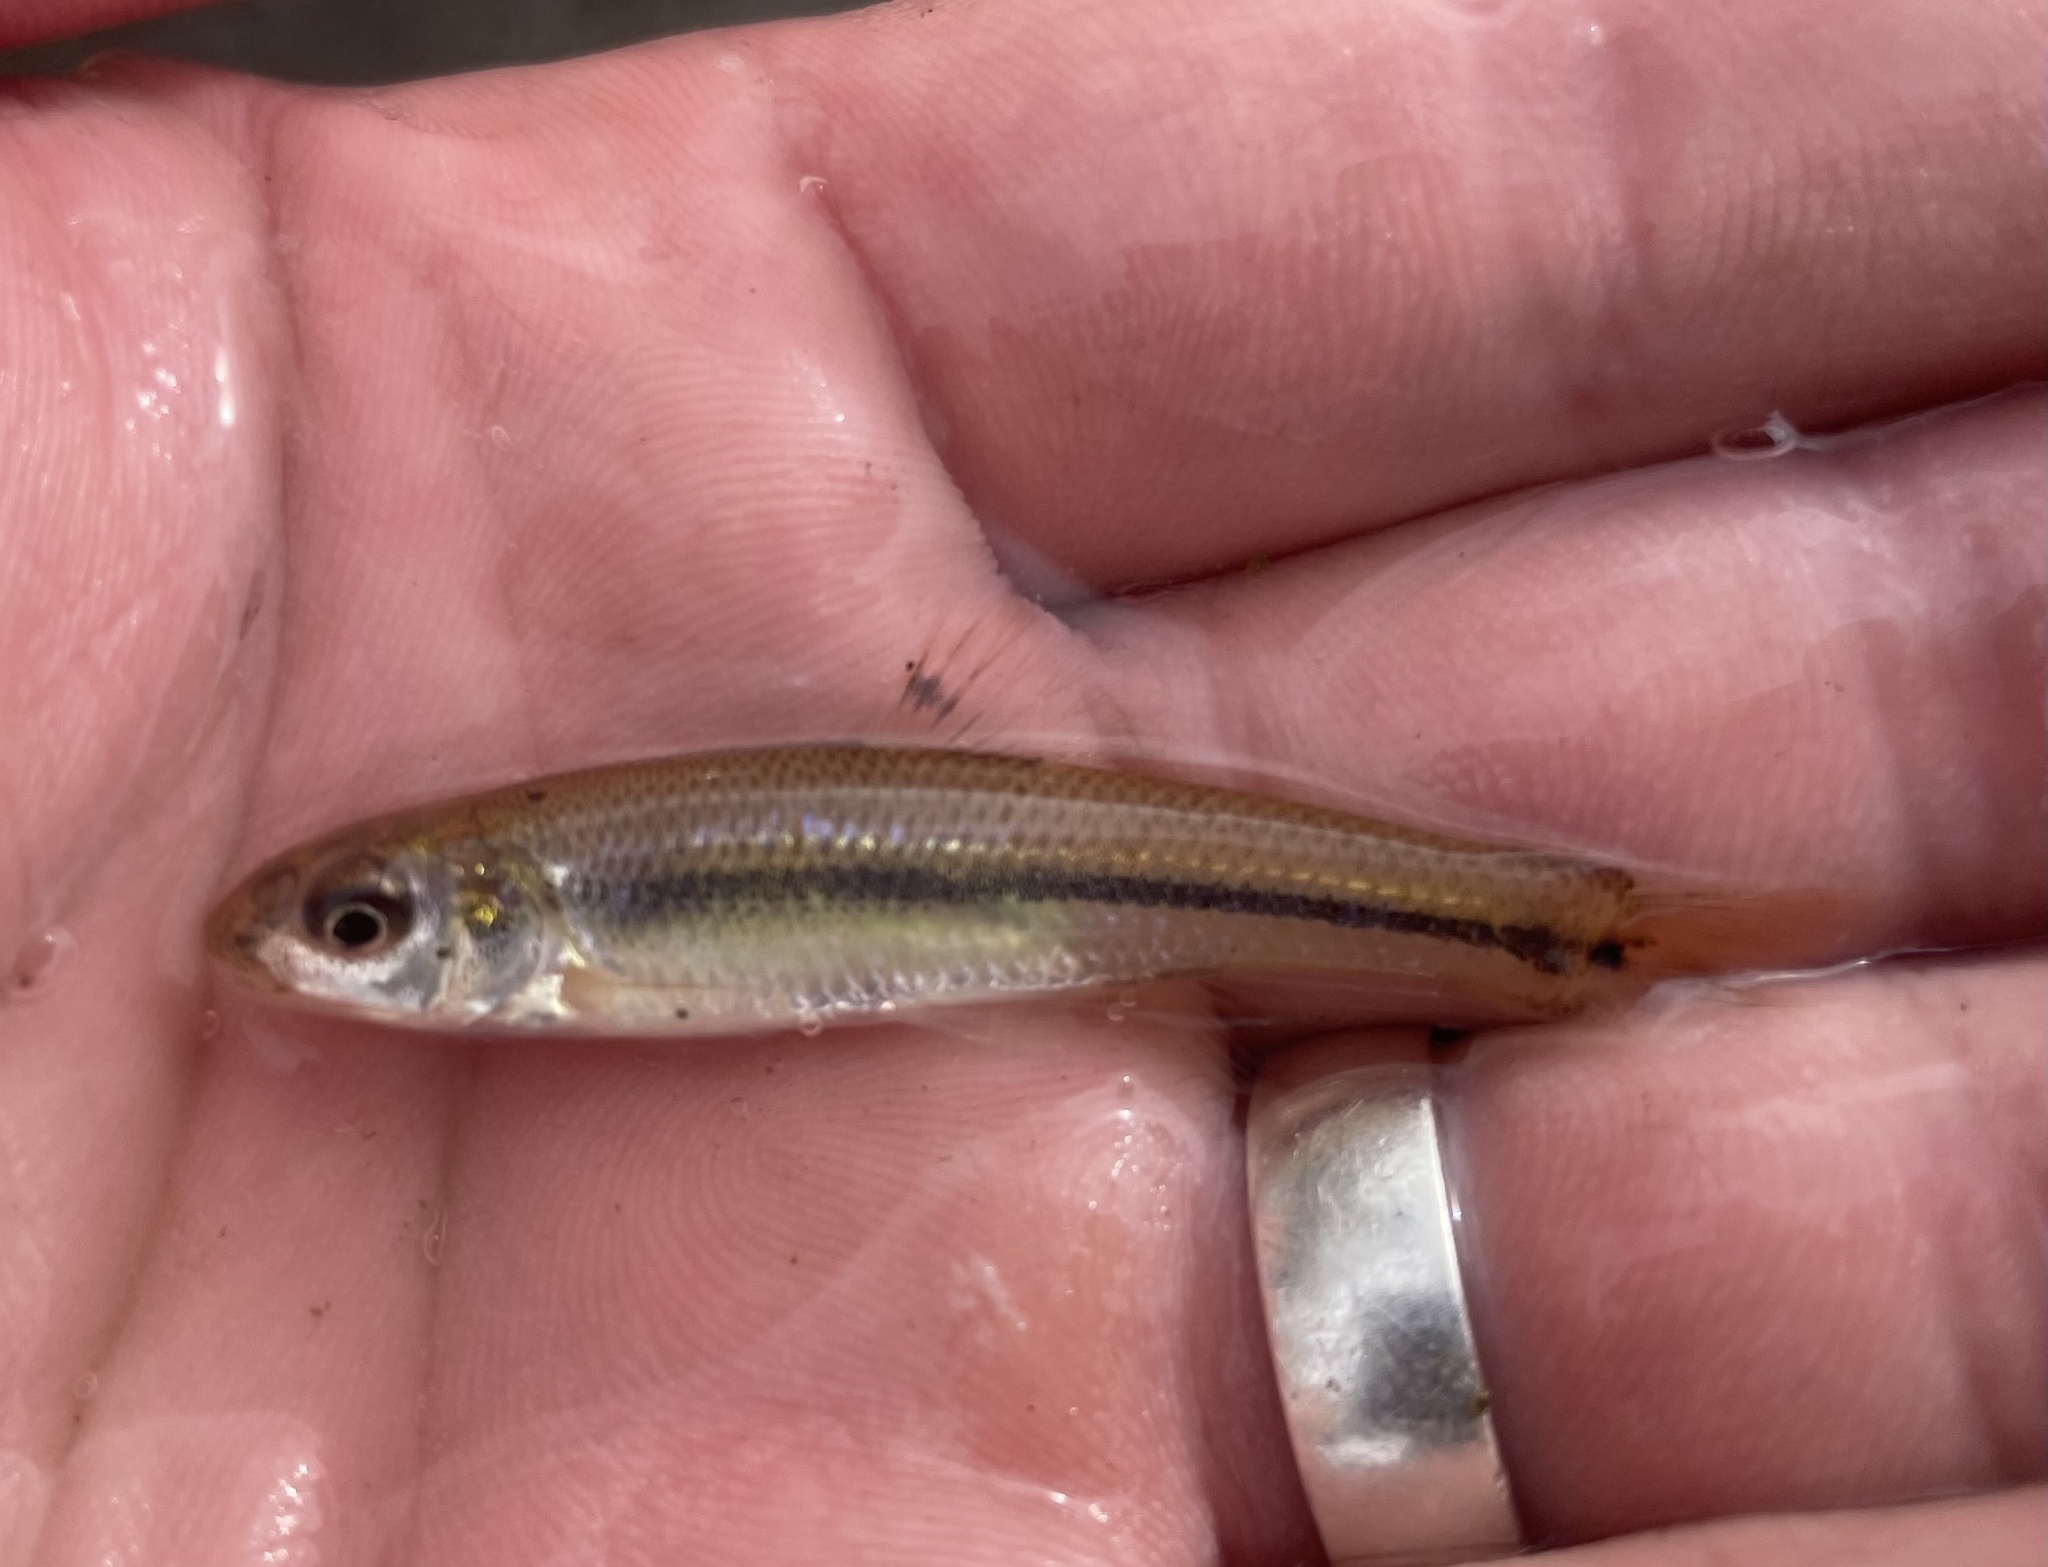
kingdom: Animalia
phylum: Chordata
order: Cypriniformes
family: Cyprinidae
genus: Pimephales
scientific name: Pimephales vigilax
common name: Bullhead minnow
